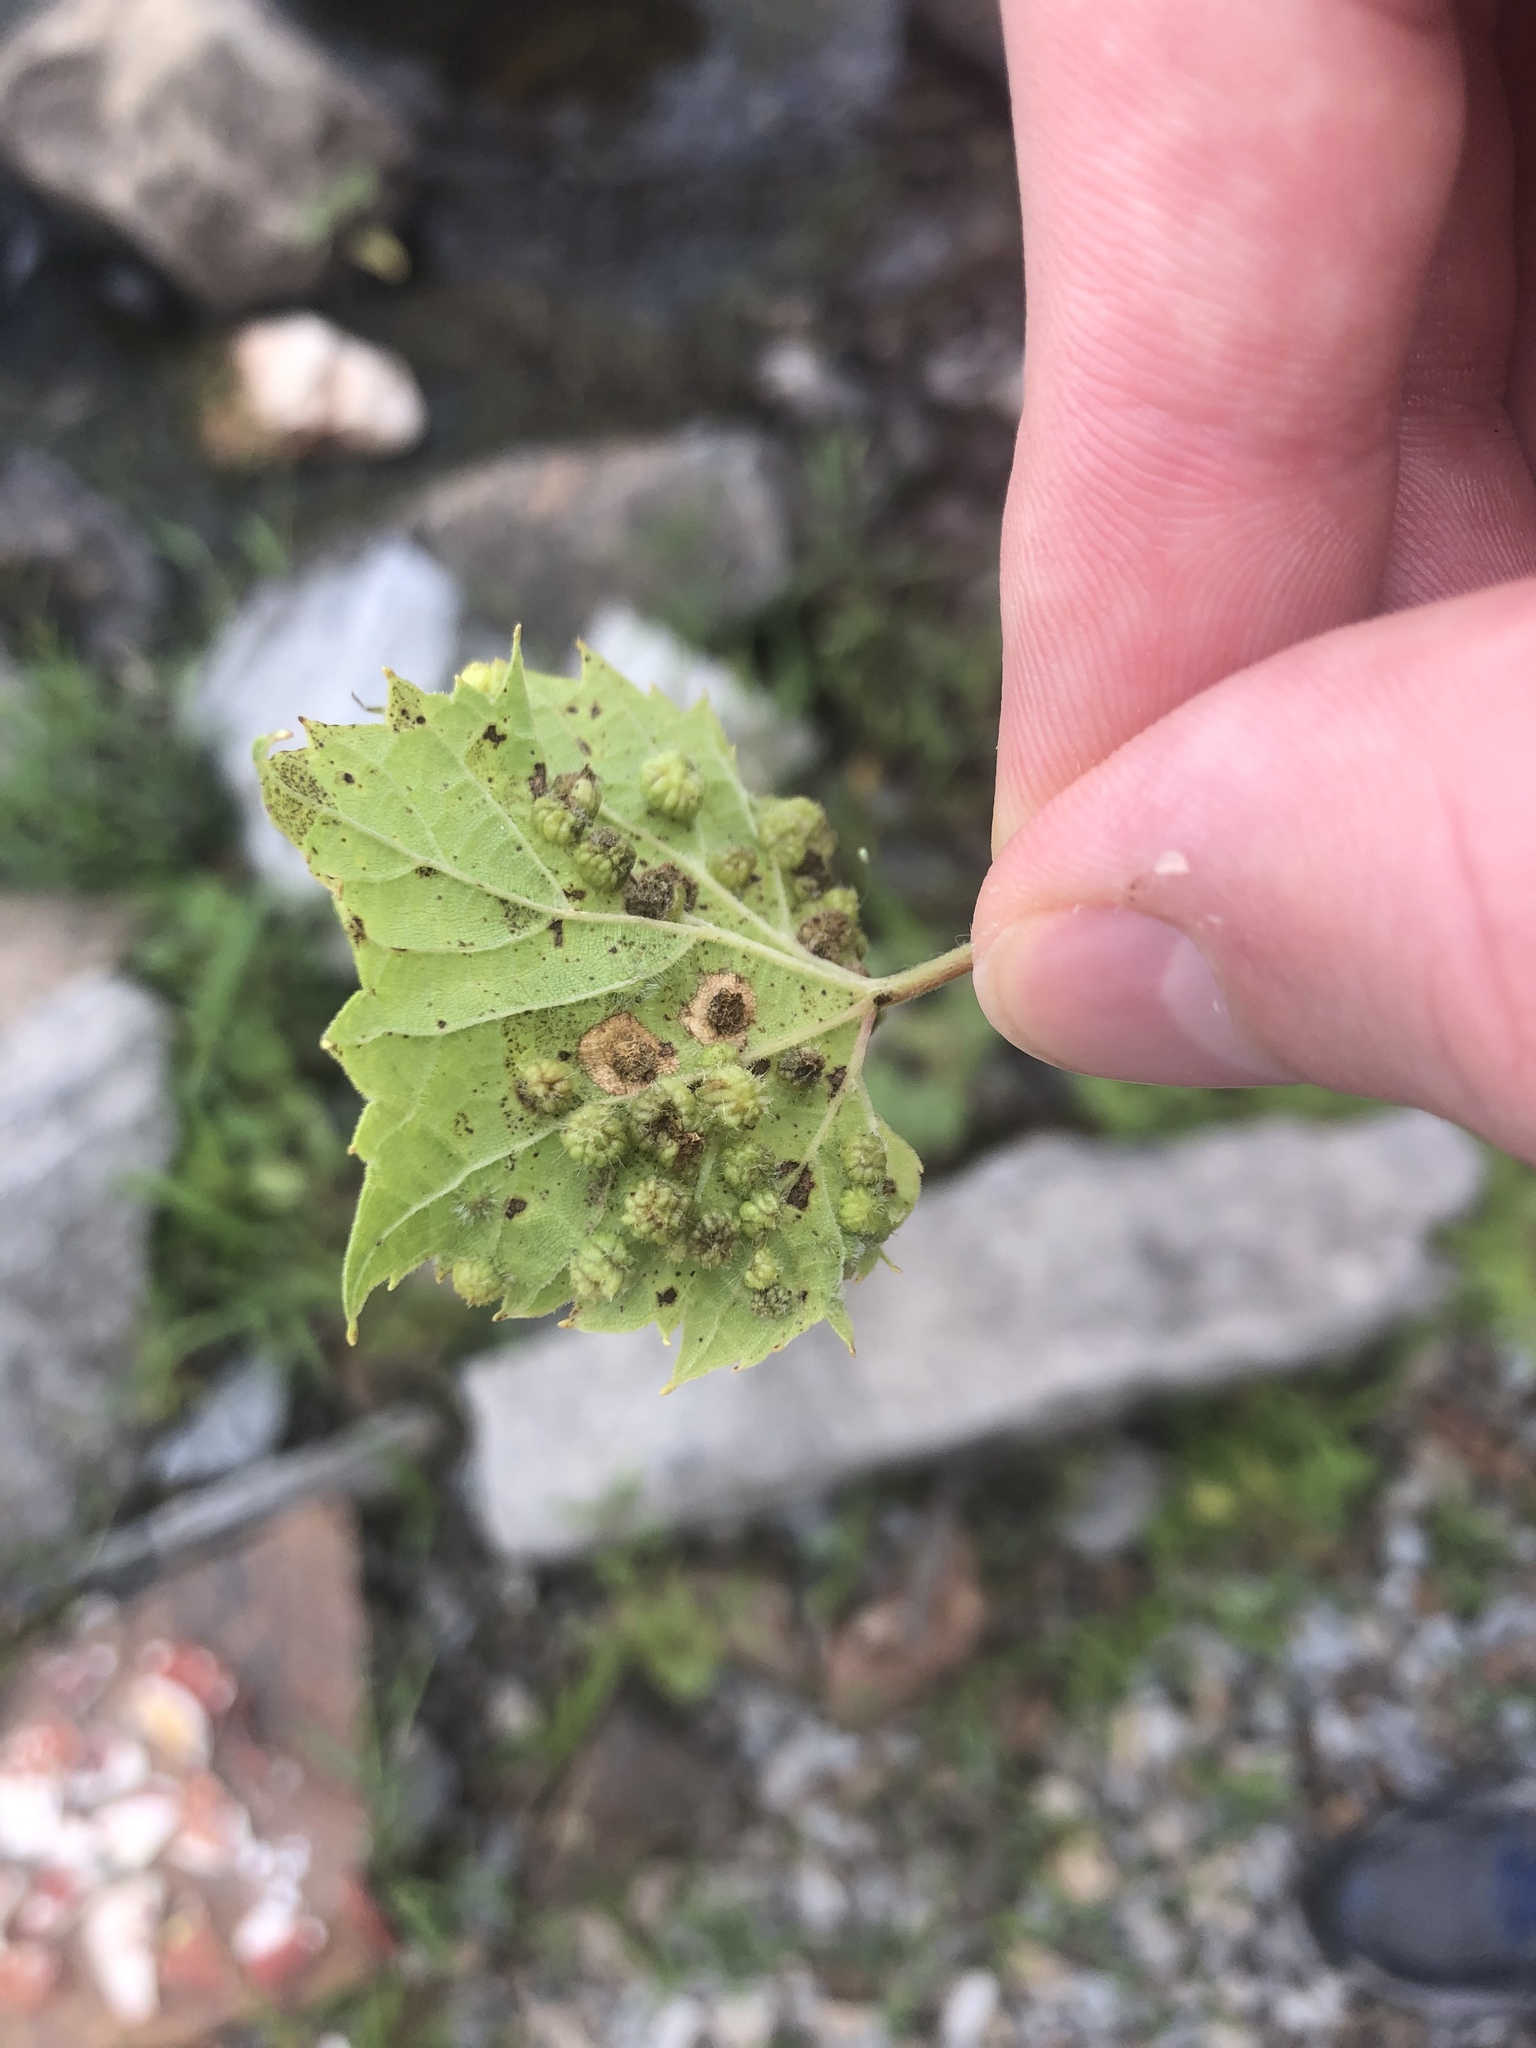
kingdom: Animalia
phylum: Arthropoda
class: Insecta
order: Hemiptera
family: Phylloxeridae
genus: Daktulosphaira
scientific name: Daktulosphaira vitifoliae
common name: Grape phylloxera
